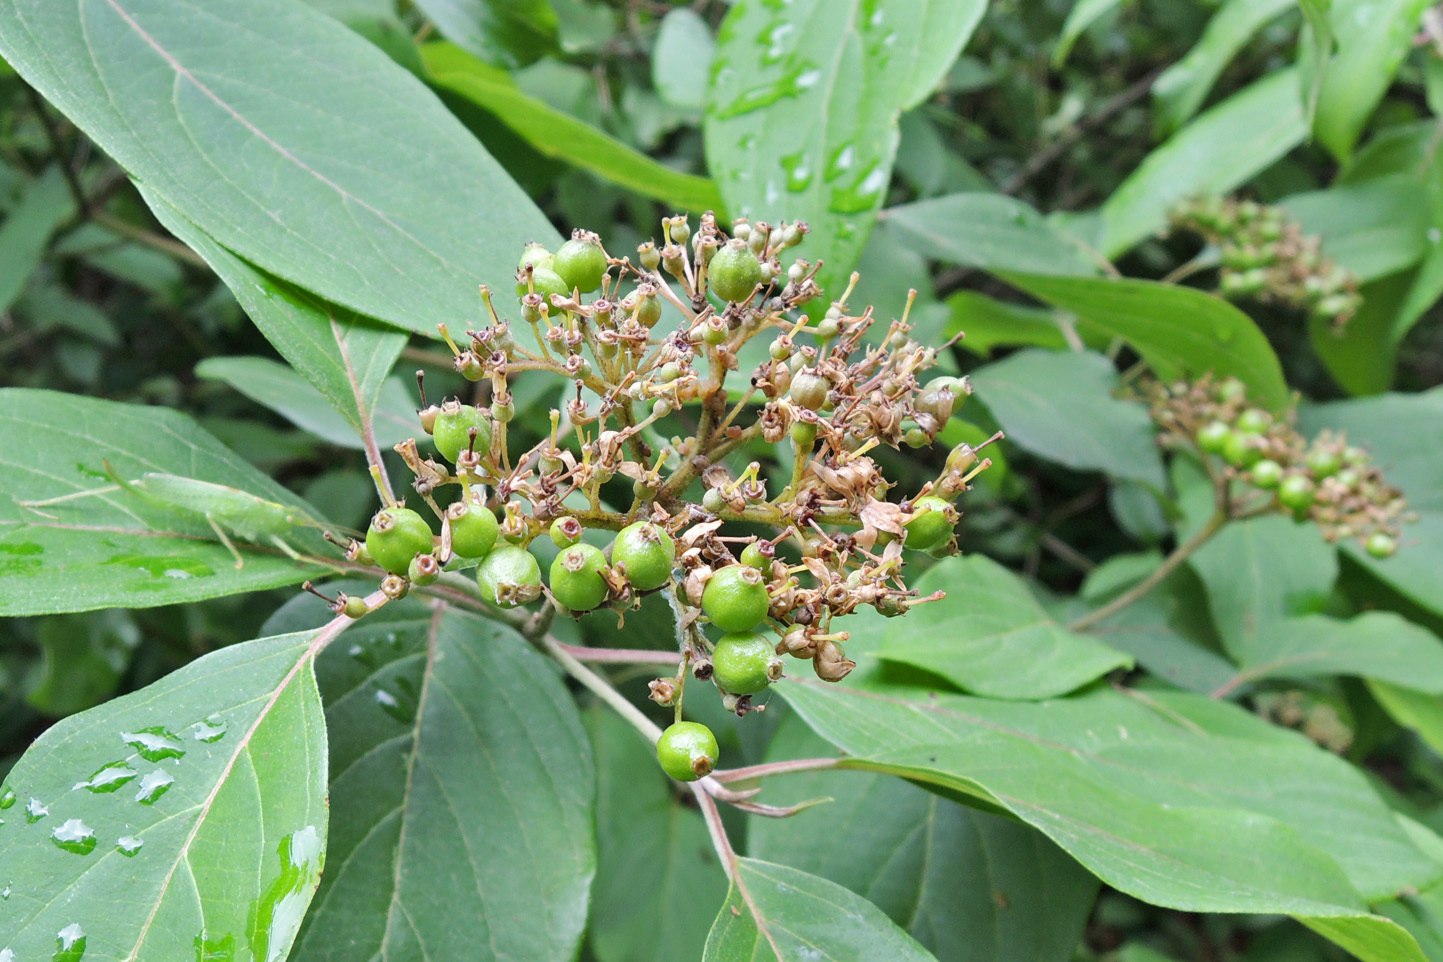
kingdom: Plantae
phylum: Tracheophyta
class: Magnoliopsida
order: Cornales
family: Cornaceae
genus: Cornus
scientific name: Cornus amomum
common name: Silky dogwood
